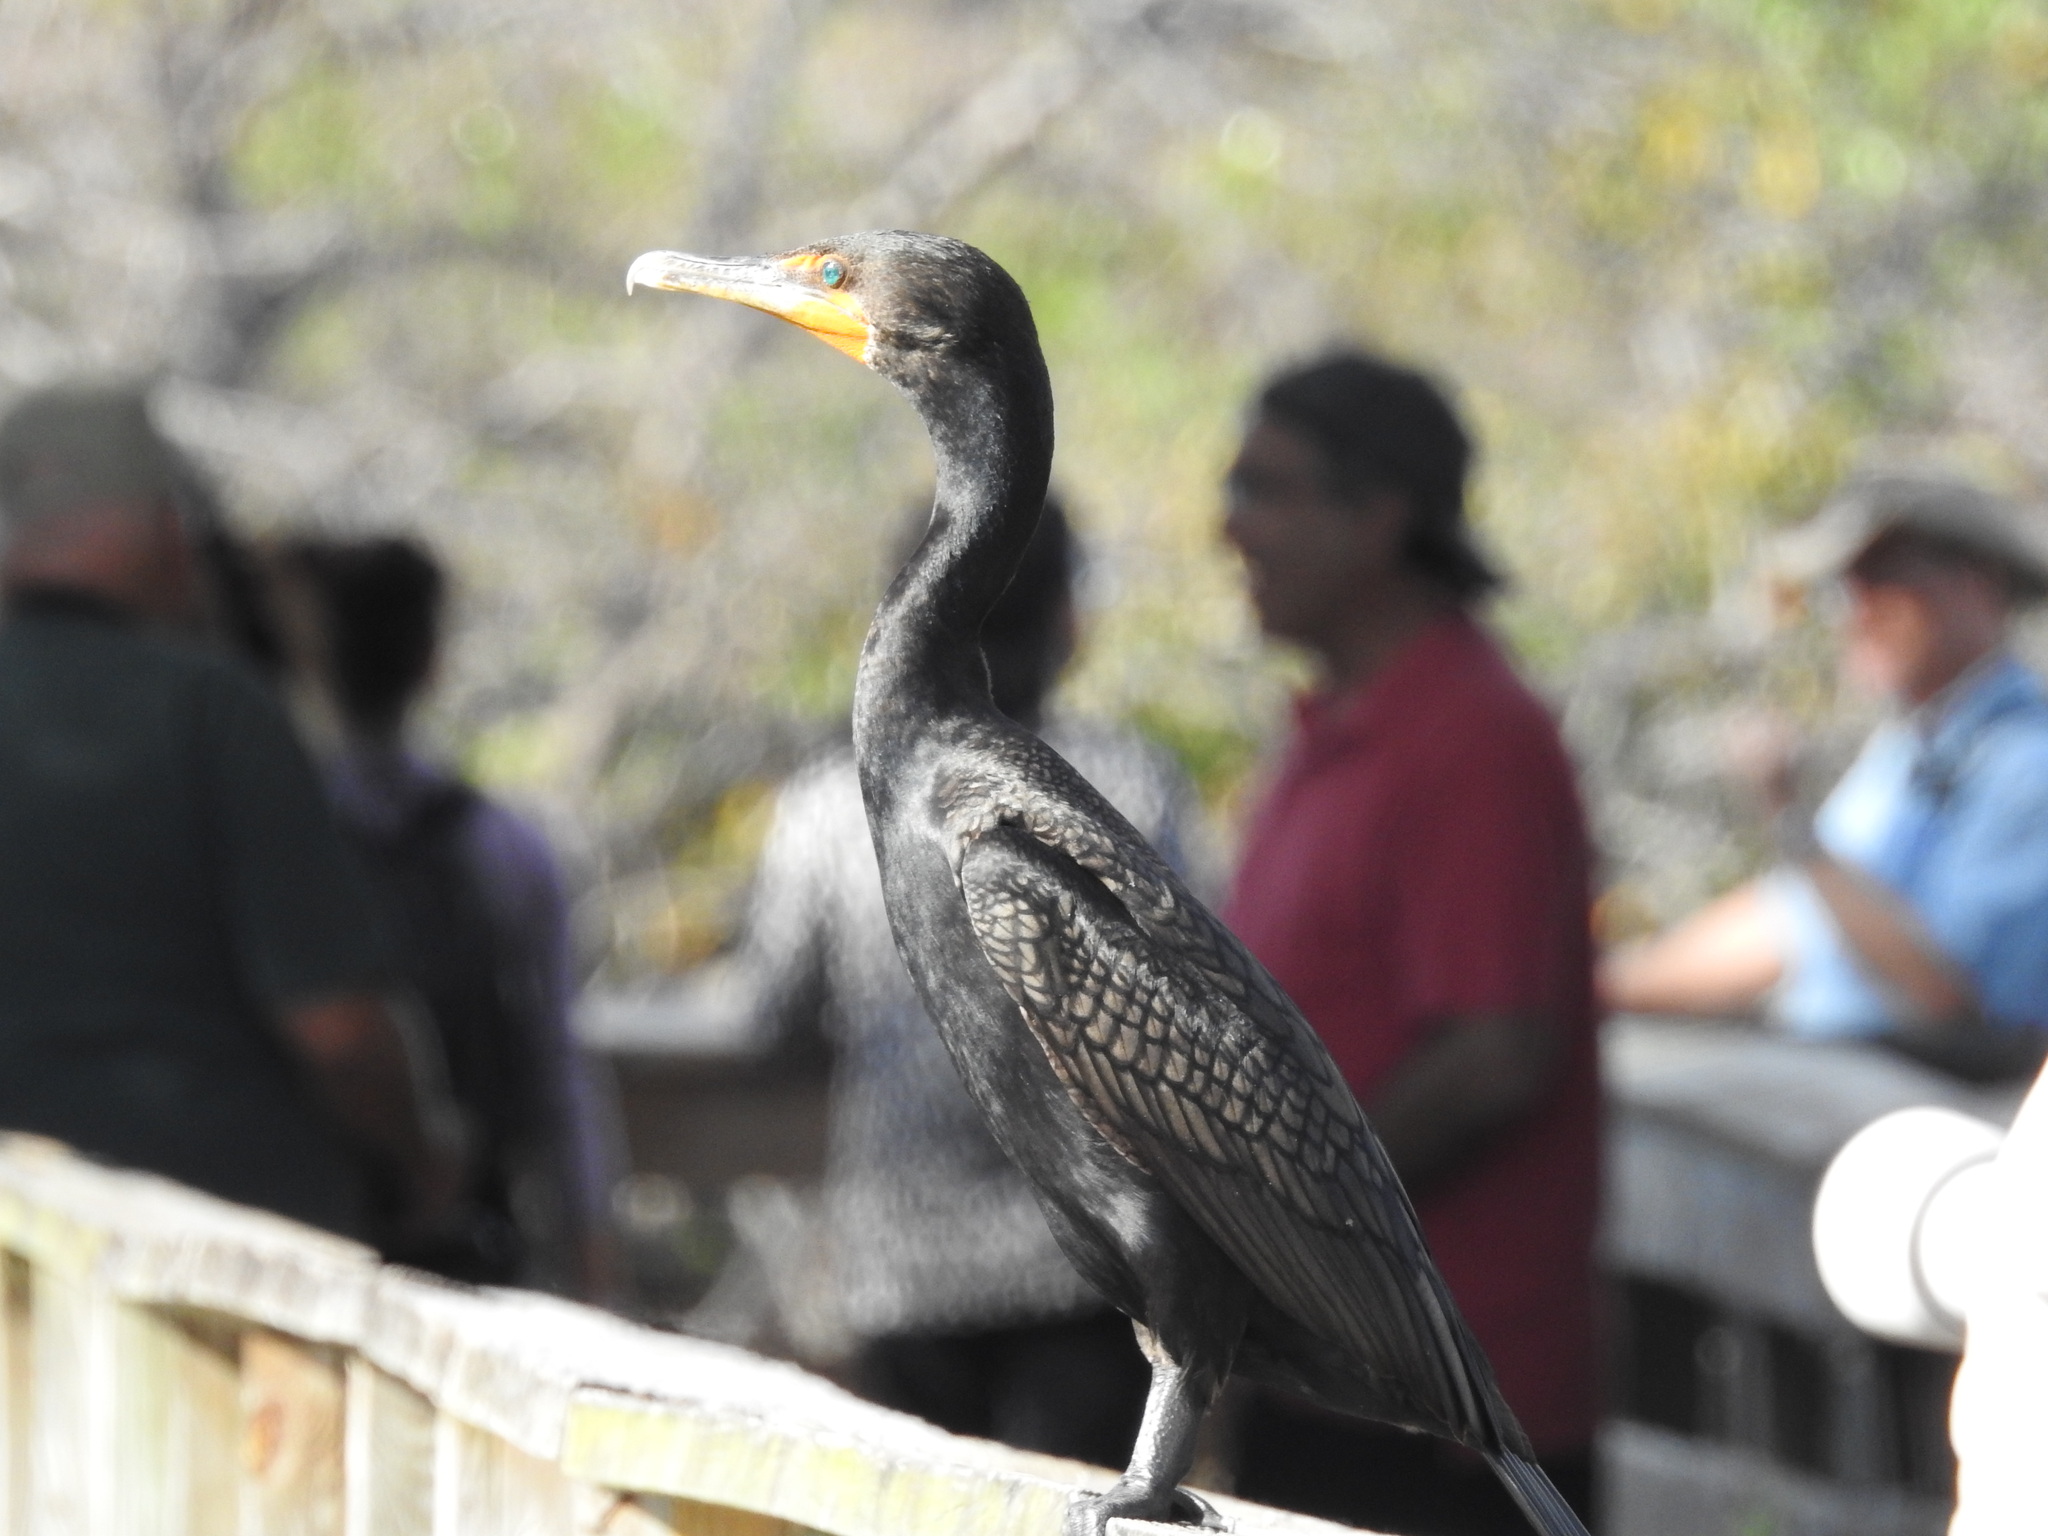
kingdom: Animalia
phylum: Chordata
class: Aves
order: Suliformes
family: Phalacrocoracidae
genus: Phalacrocorax
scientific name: Phalacrocorax auritus
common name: Double-crested cormorant
